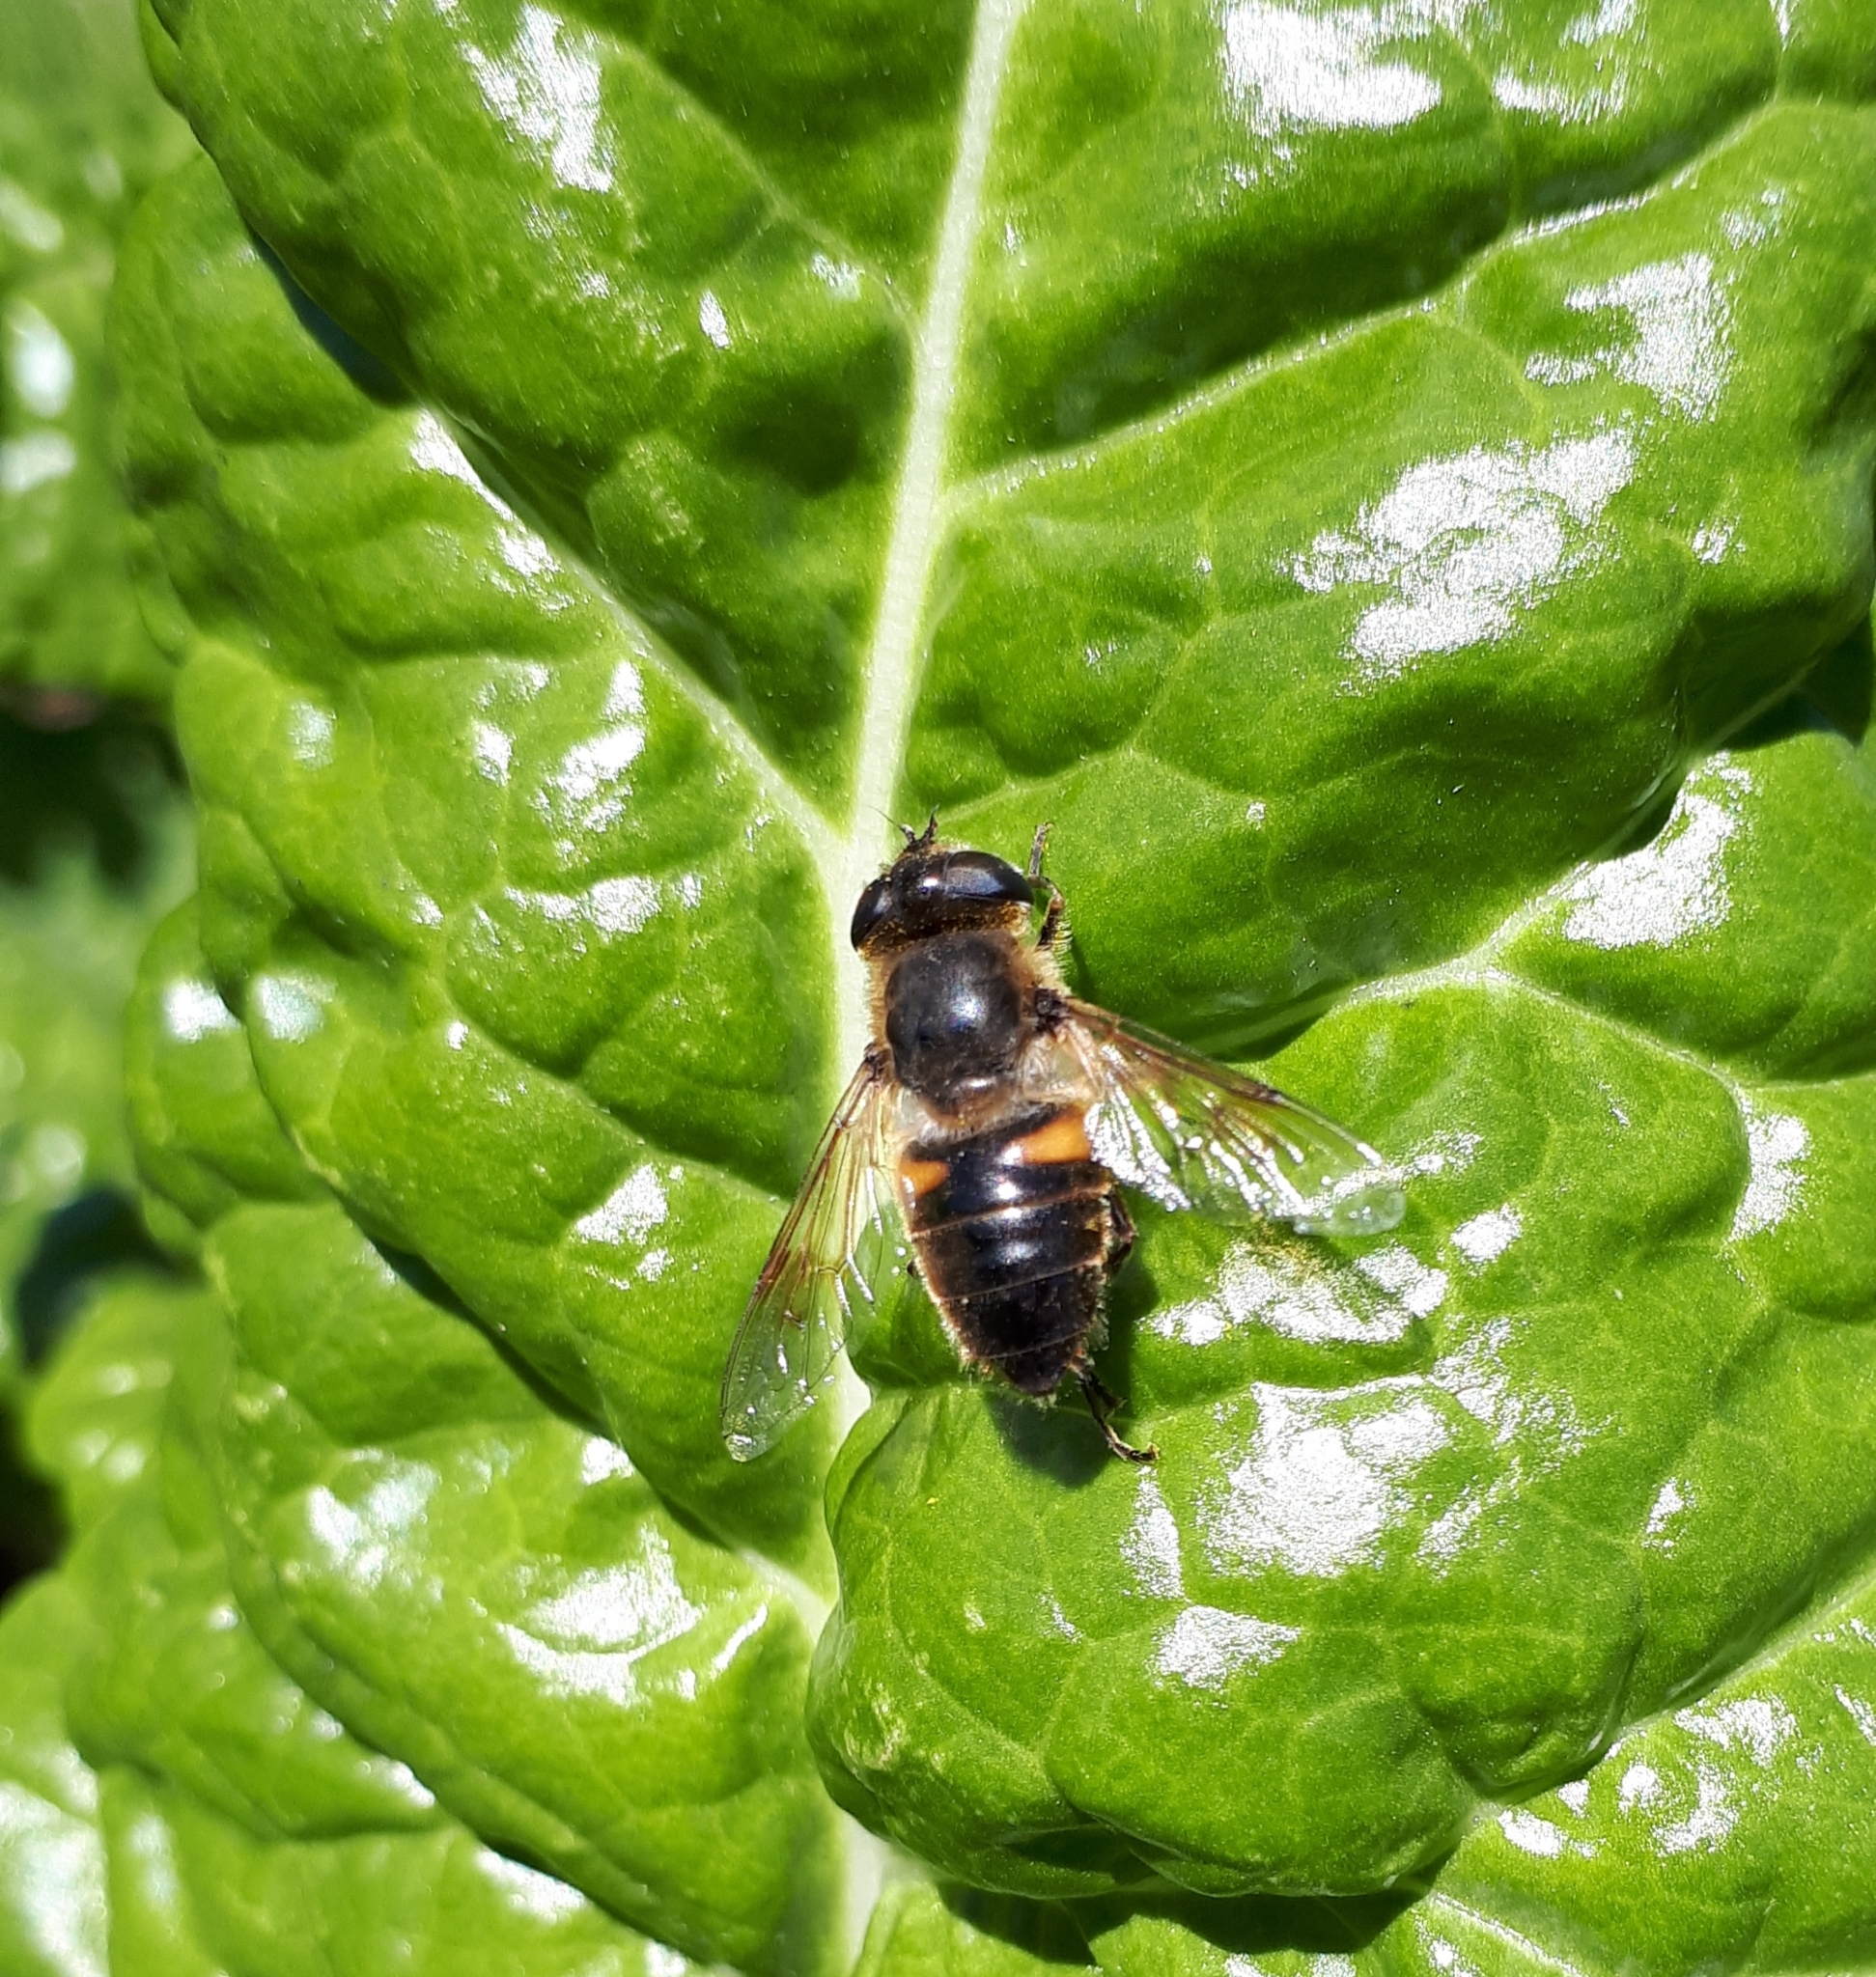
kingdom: Animalia
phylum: Arthropoda
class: Insecta
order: Diptera
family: Syrphidae
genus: Eristalis
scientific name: Eristalis tenax
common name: Drone fly
